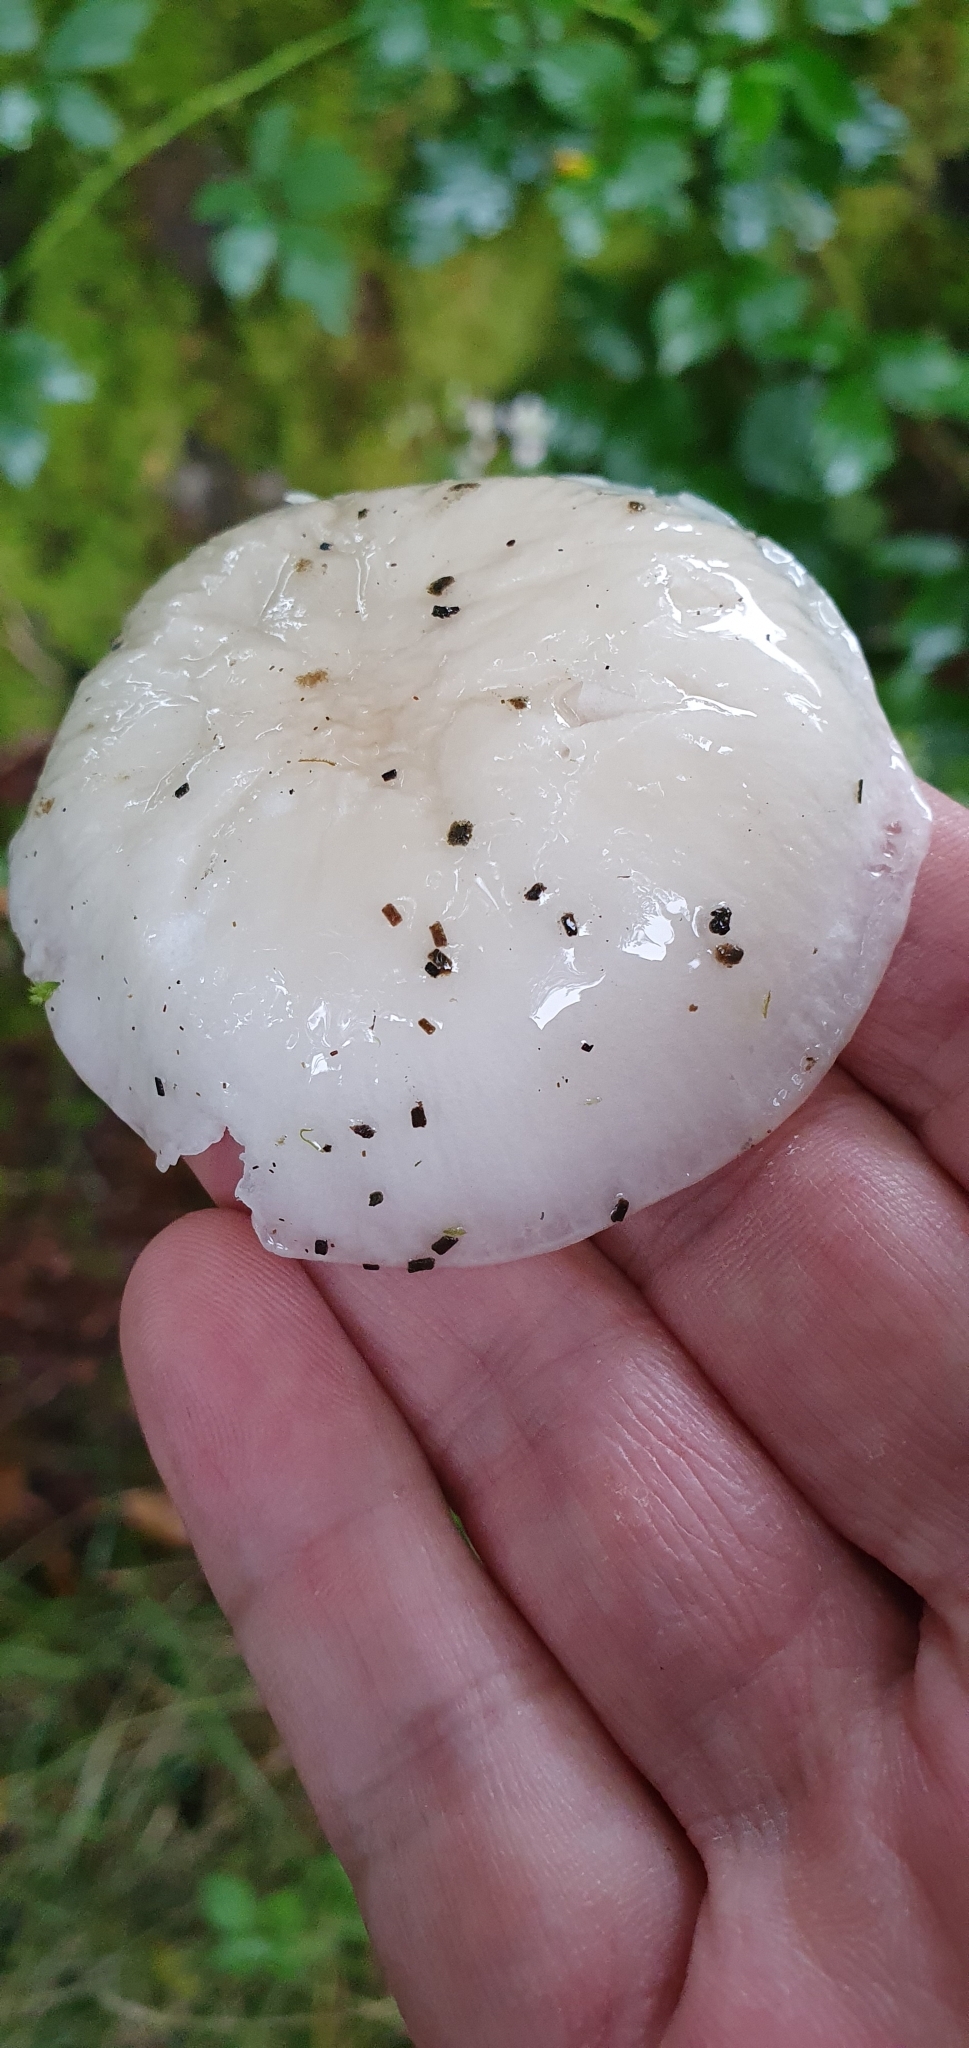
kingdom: Fungi
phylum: Basidiomycota
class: Agaricomycetes
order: Agaricales
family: Physalacriaceae
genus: Mucidula
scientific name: Mucidula mucida
